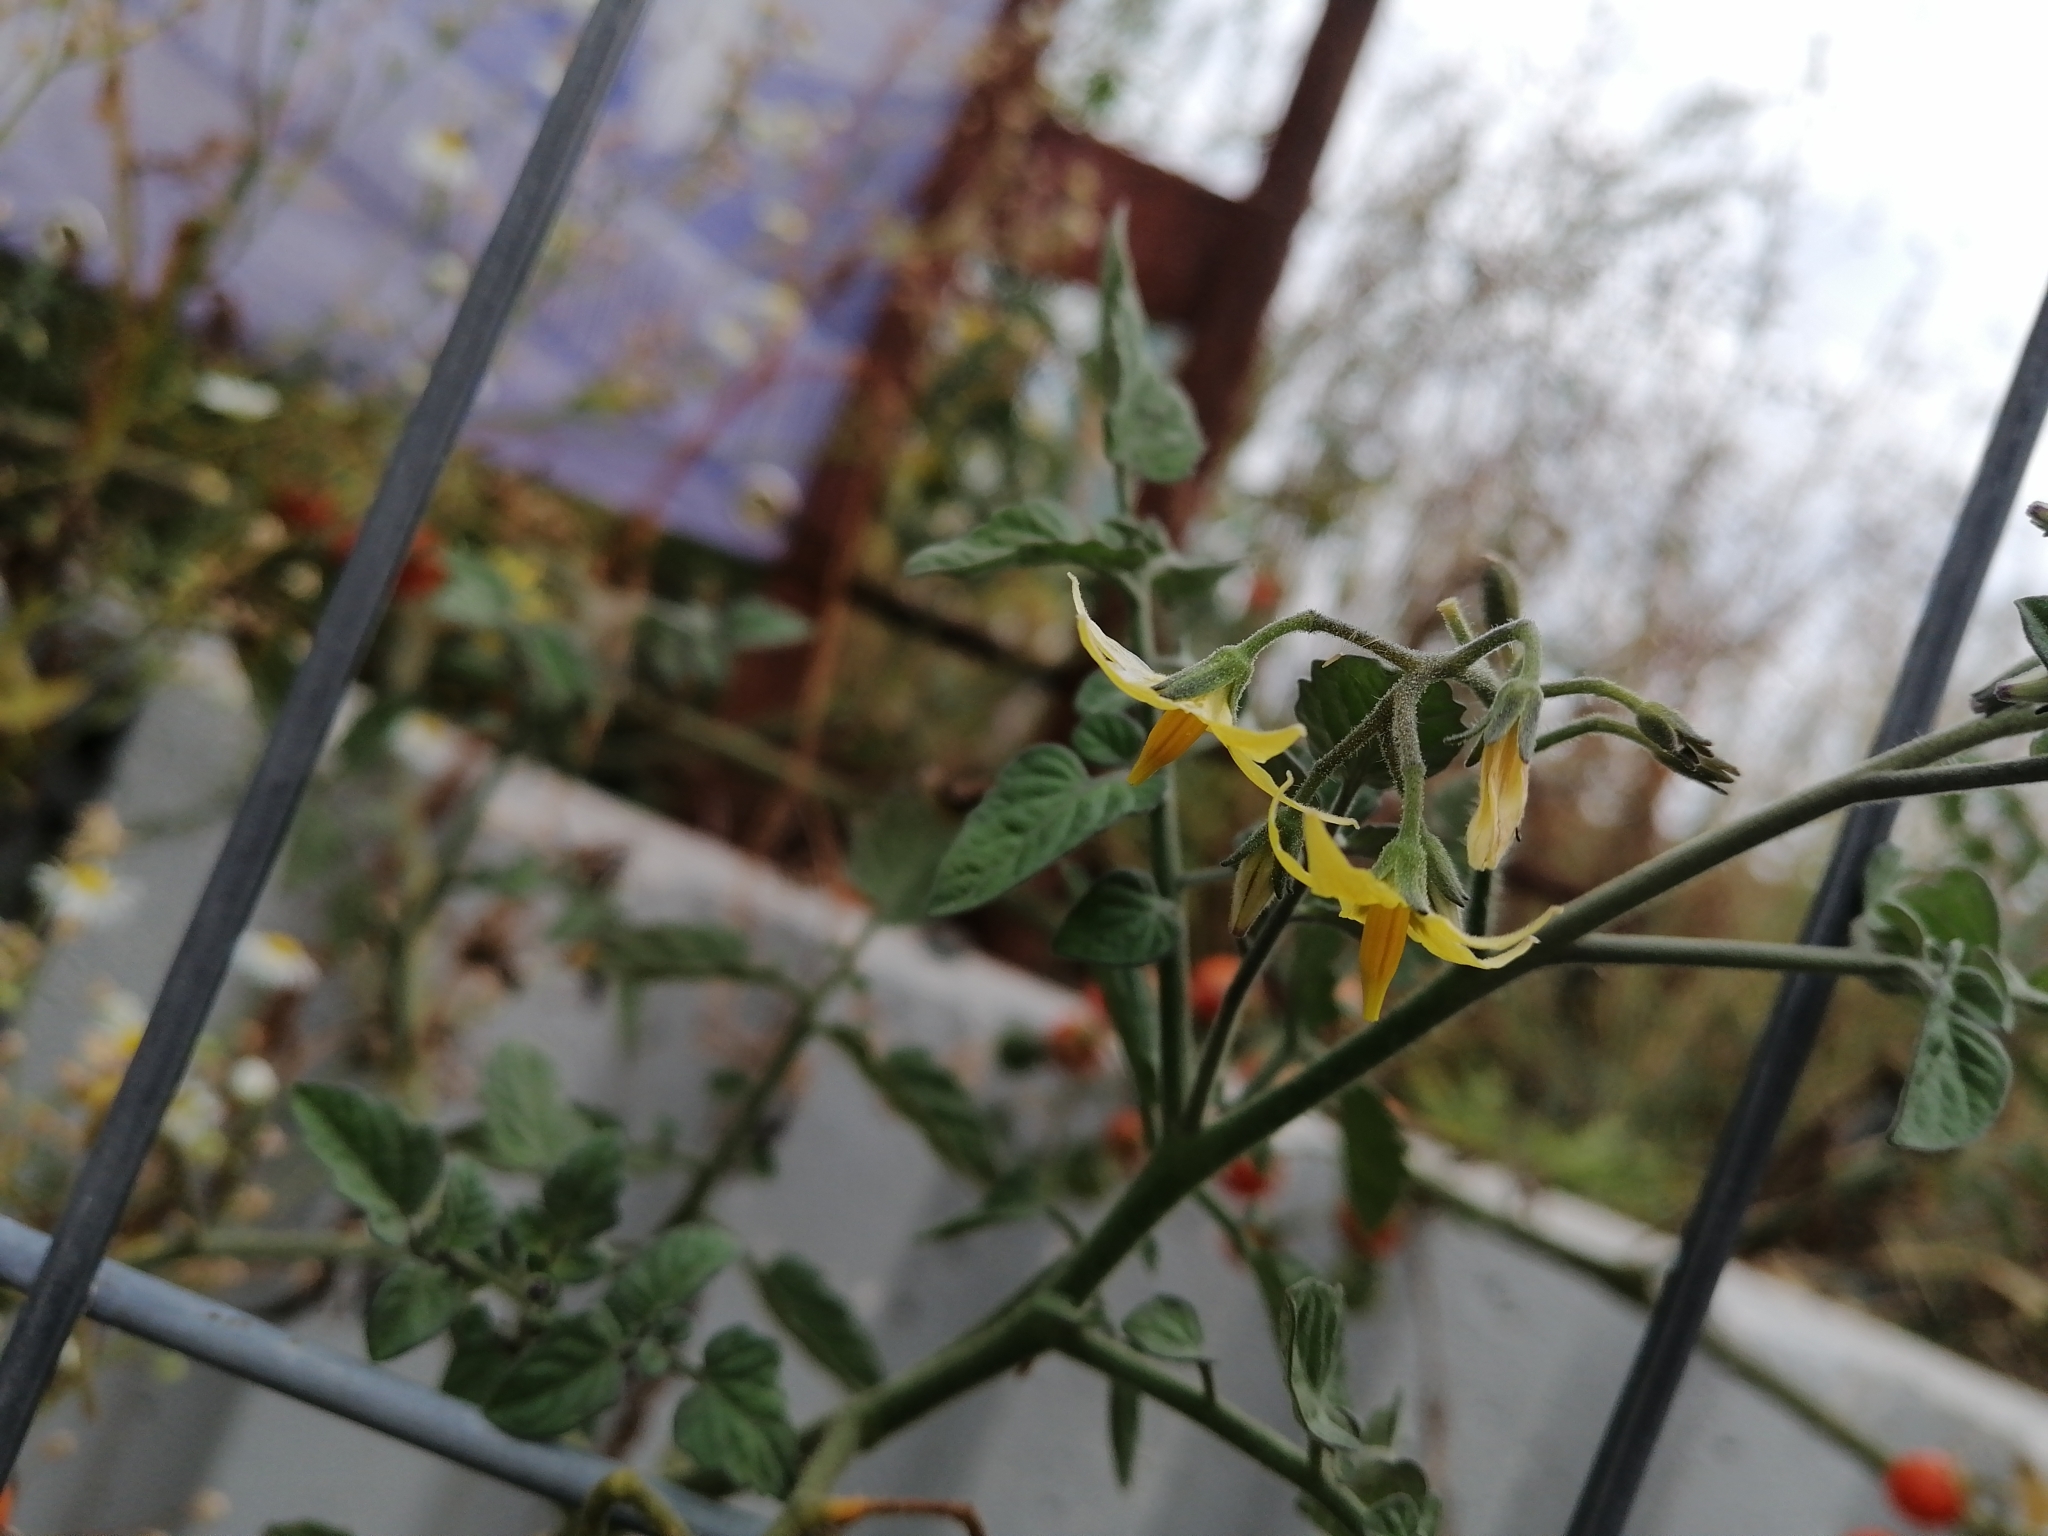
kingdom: Plantae
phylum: Tracheophyta
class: Magnoliopsida
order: Solanales
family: Solanaceae
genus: Solanum
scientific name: Solanum lycopersicum
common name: Garden tomato
